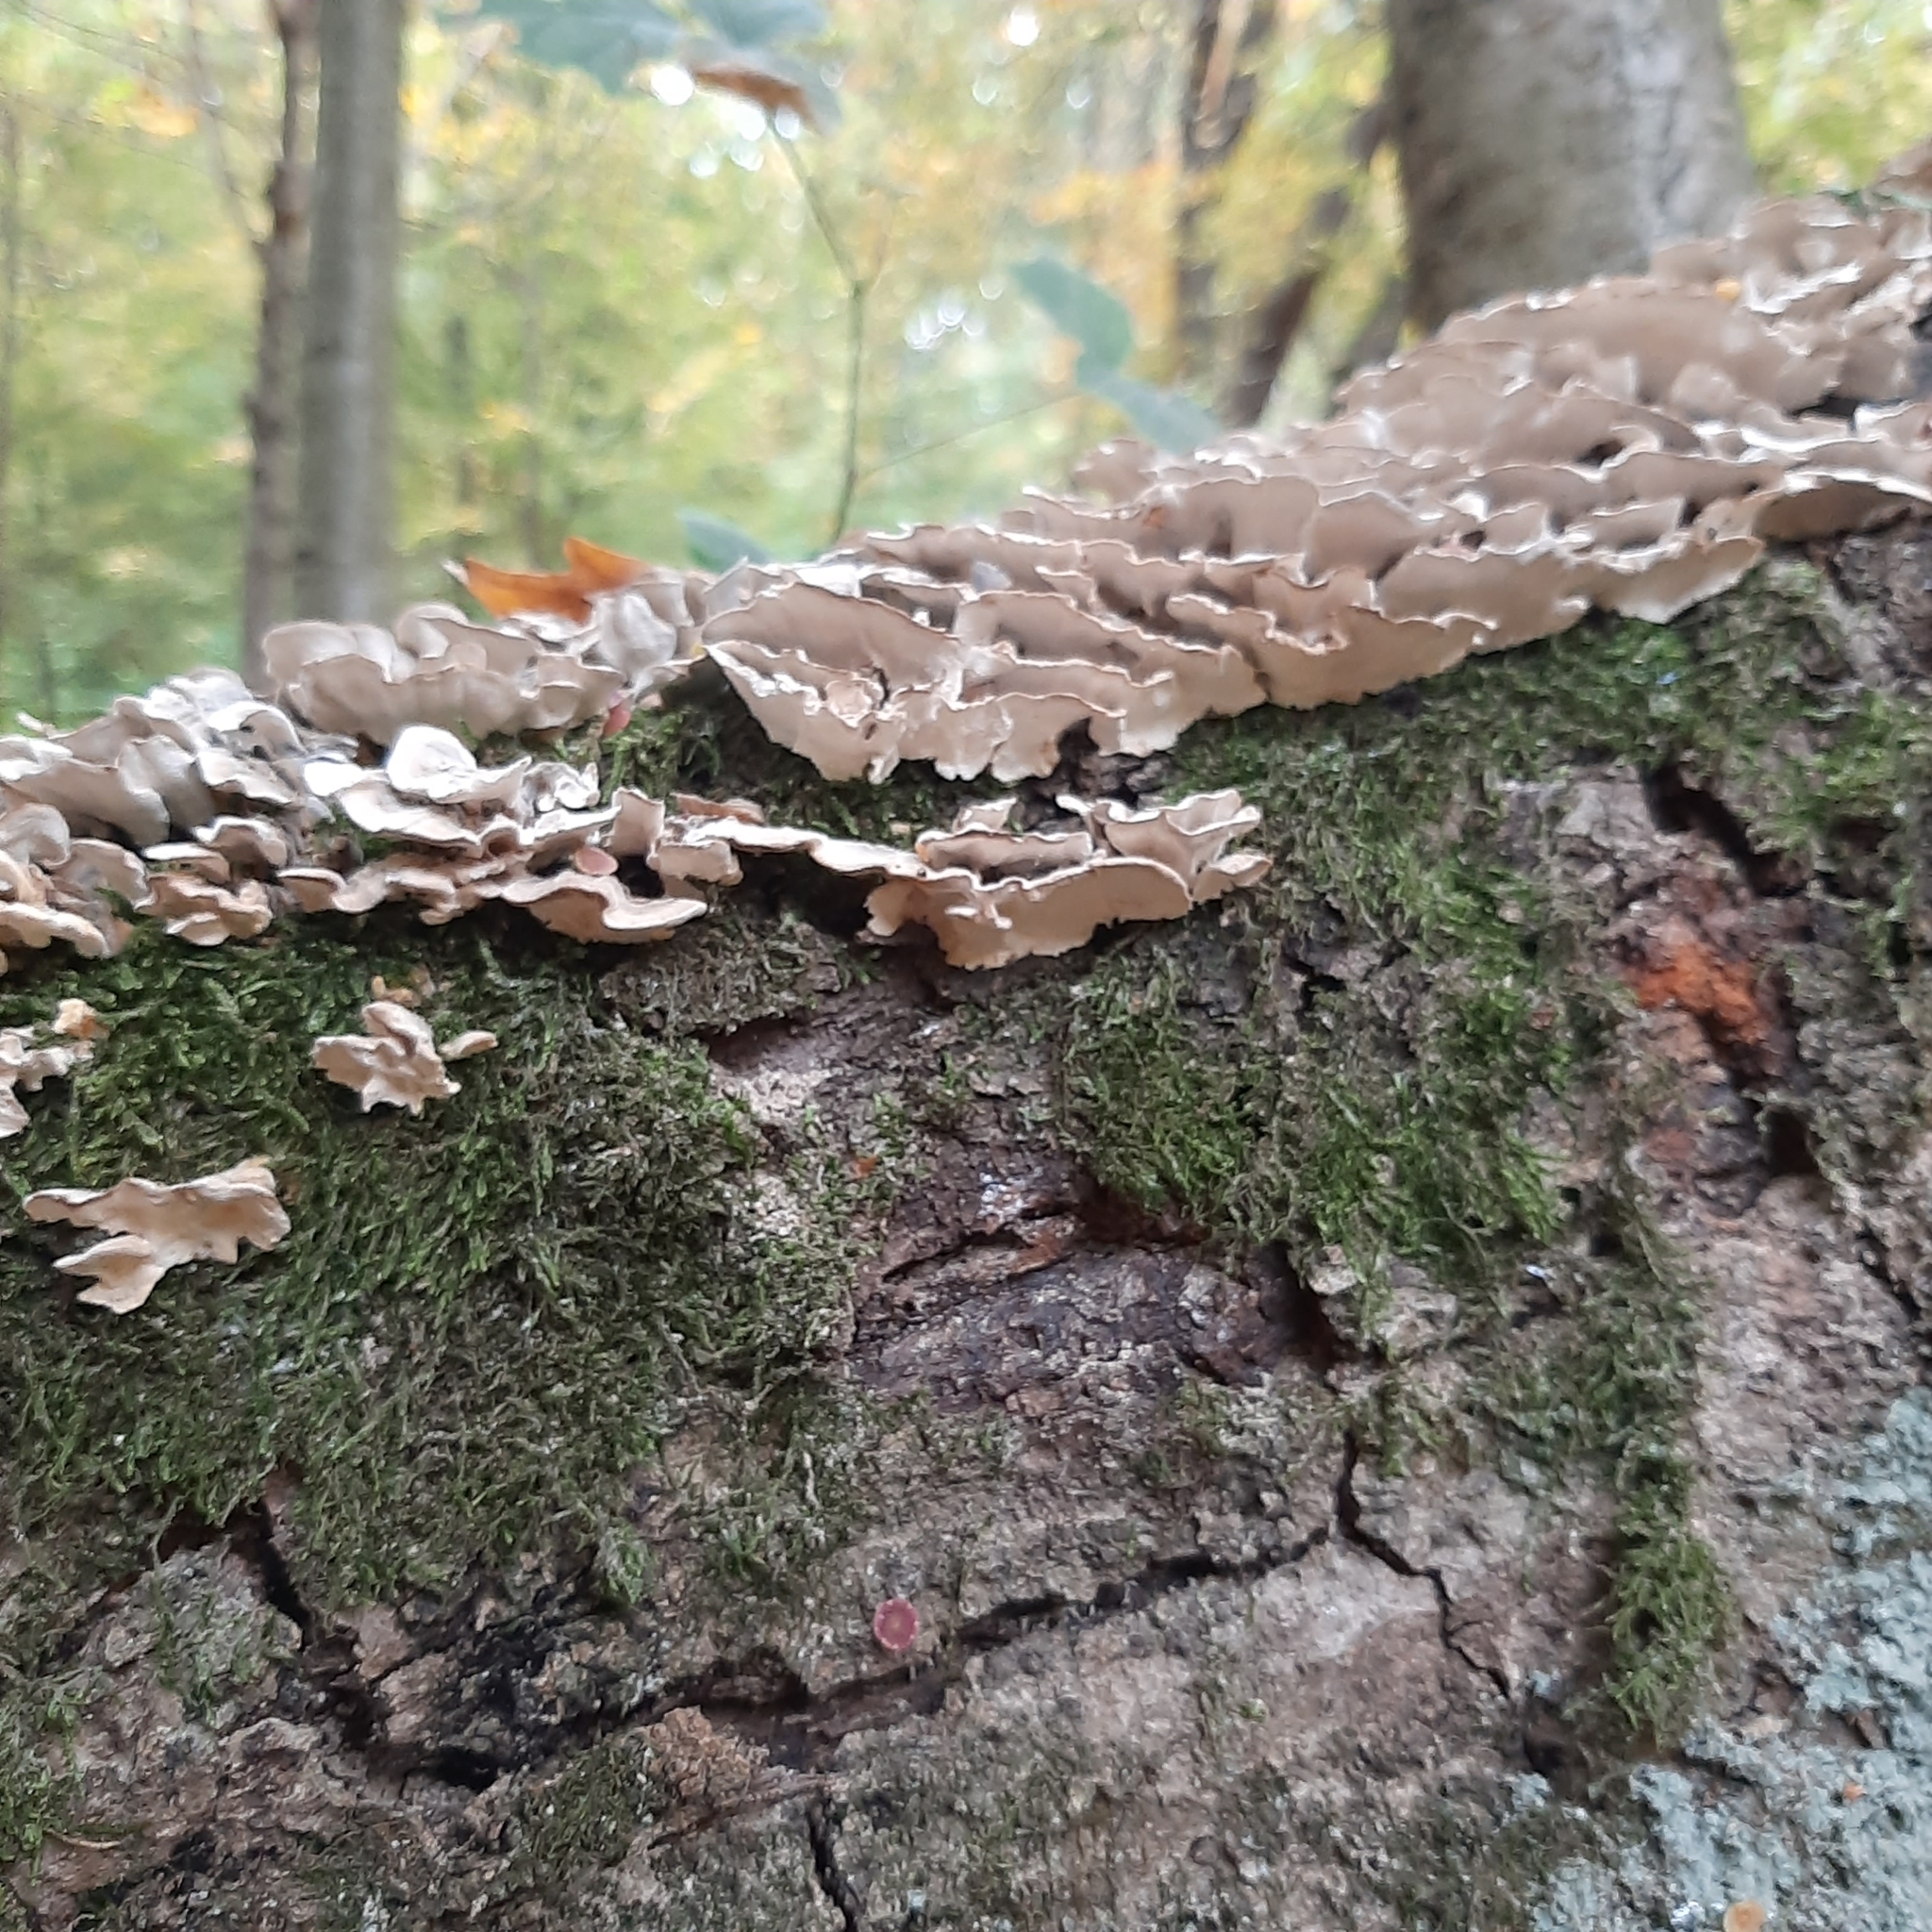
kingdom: Fungi
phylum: Basidiomycota
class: Agaricomycetes
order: Polyporales
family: Polyporaceae
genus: Trametes
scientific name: Trametes versicolor
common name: Turkeytail
